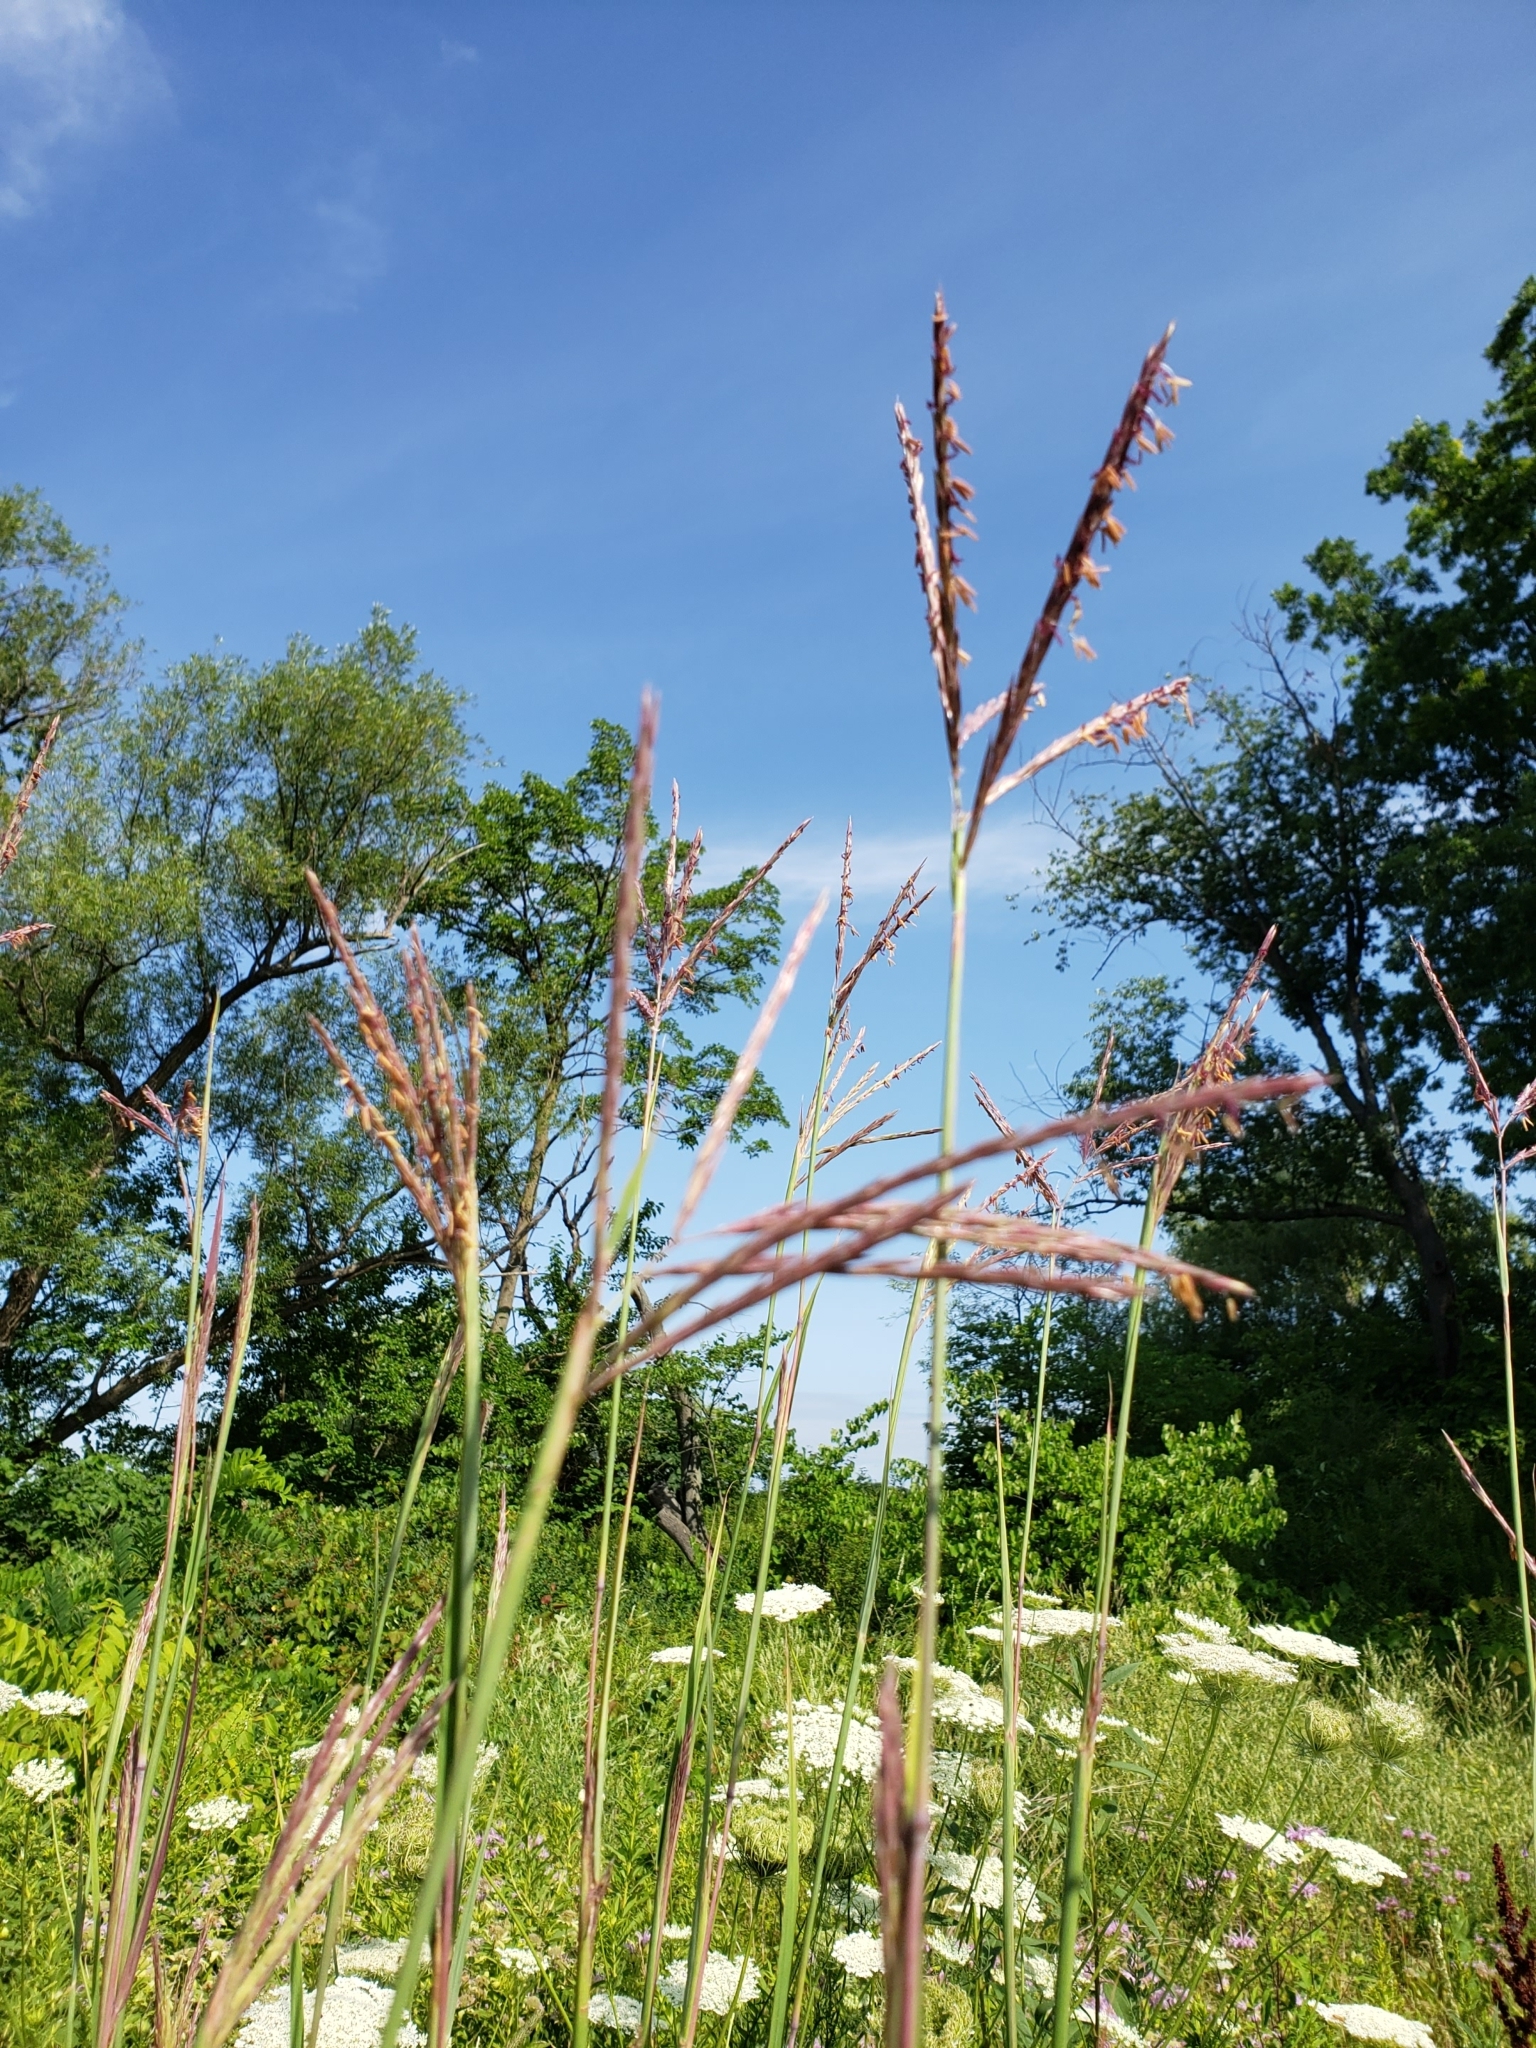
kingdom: Plantae
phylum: Tracheophyta
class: Liliopsida
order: Poales
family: Poaceae
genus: Andropogon
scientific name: Andropogon gerardi
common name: Big bluestem
